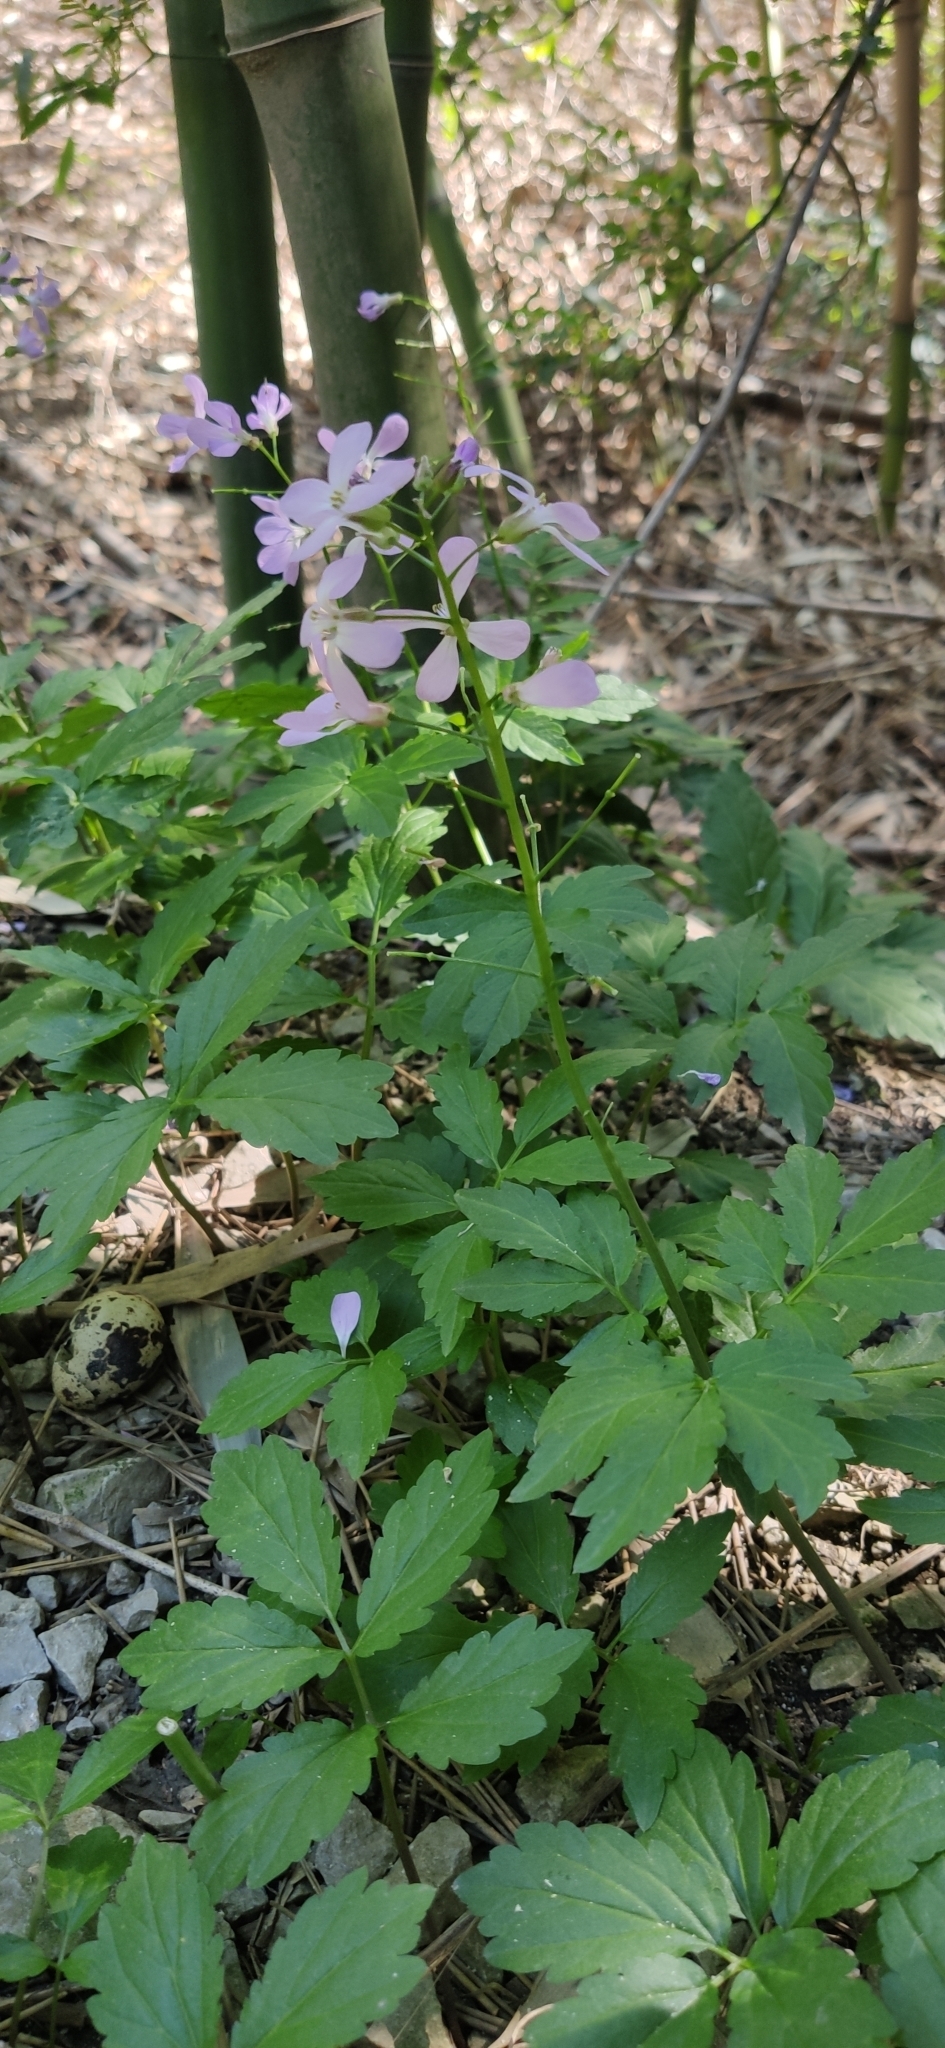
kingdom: Plantae
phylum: Tracheophyta
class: Magnoliopsida
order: Brassicales
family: Brassicaceae
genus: Cardamine
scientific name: Cardamine quinquefolia
